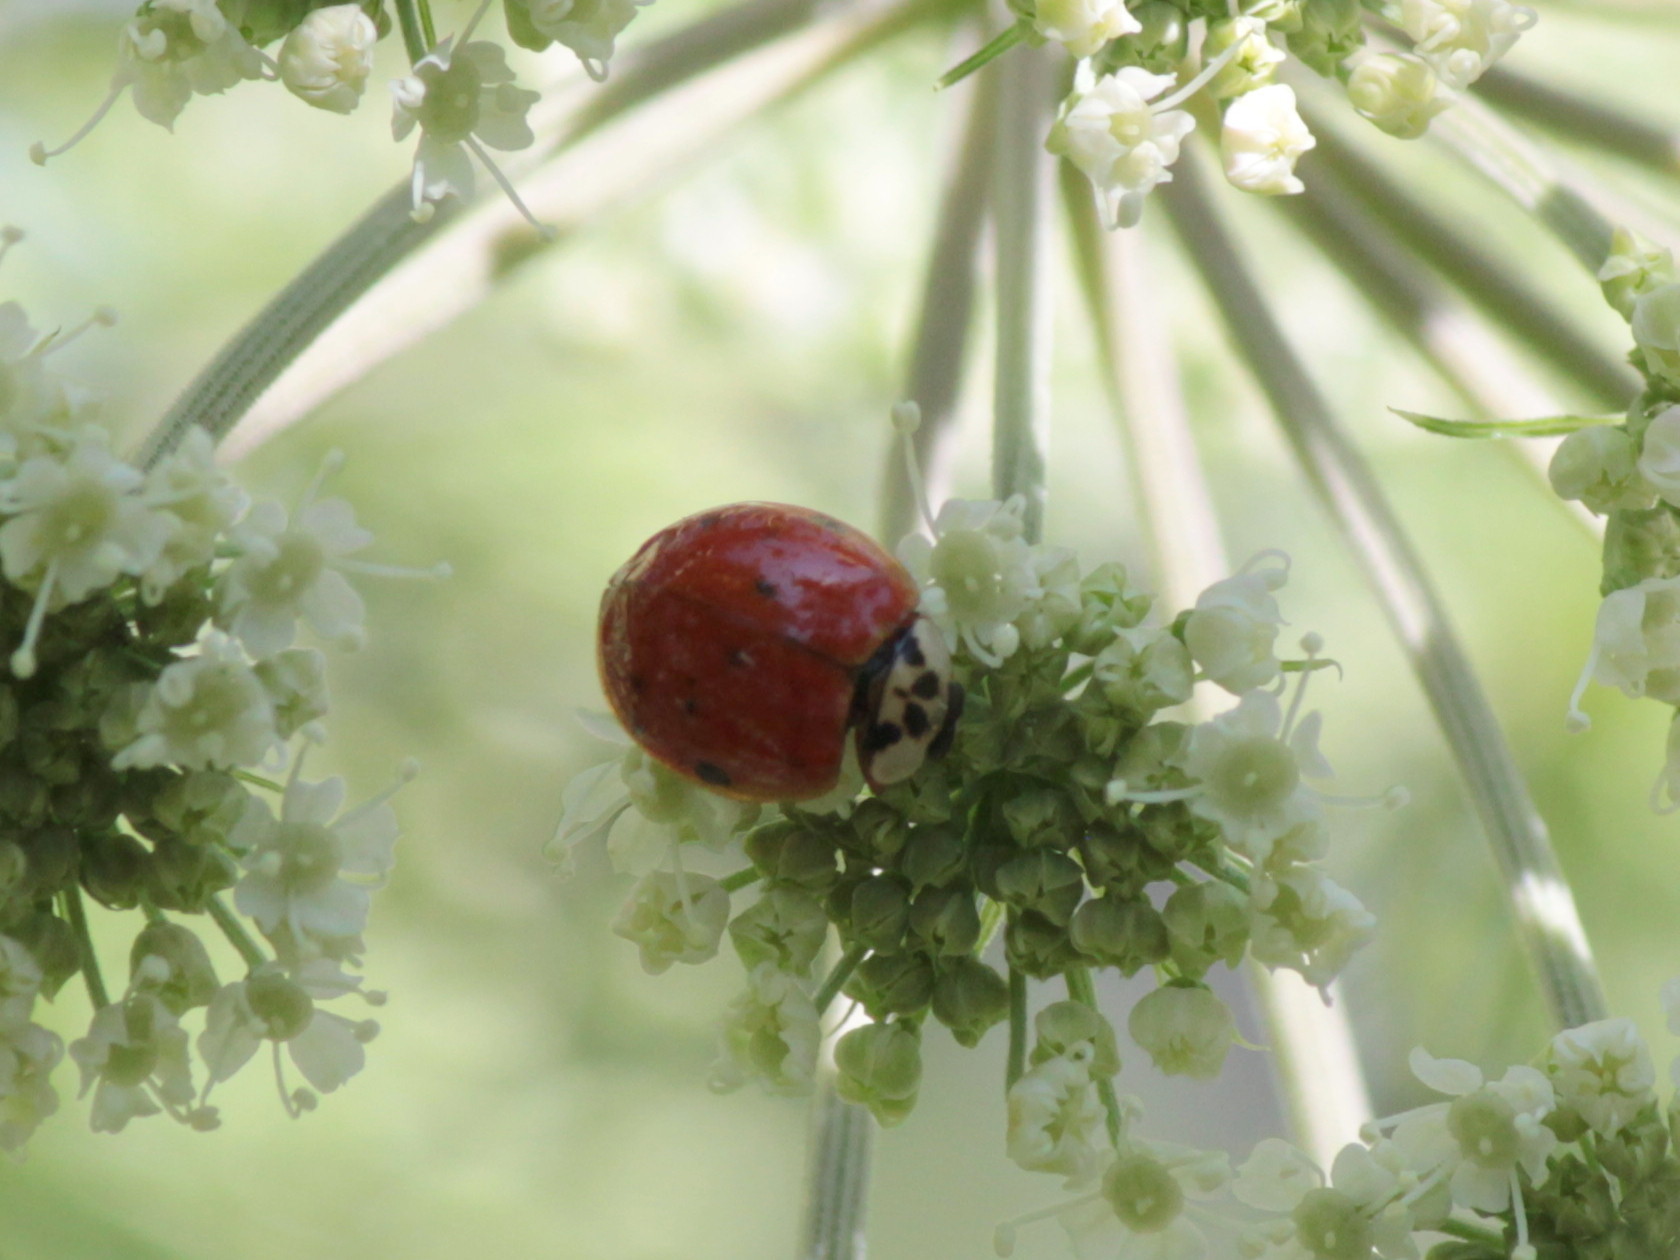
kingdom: Animalia
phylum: Arthropoda
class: Insecta
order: Coleoptera
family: Coccinellidae
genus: Harmonia
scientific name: Harmonia axyridis
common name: Harlequin ladybird
